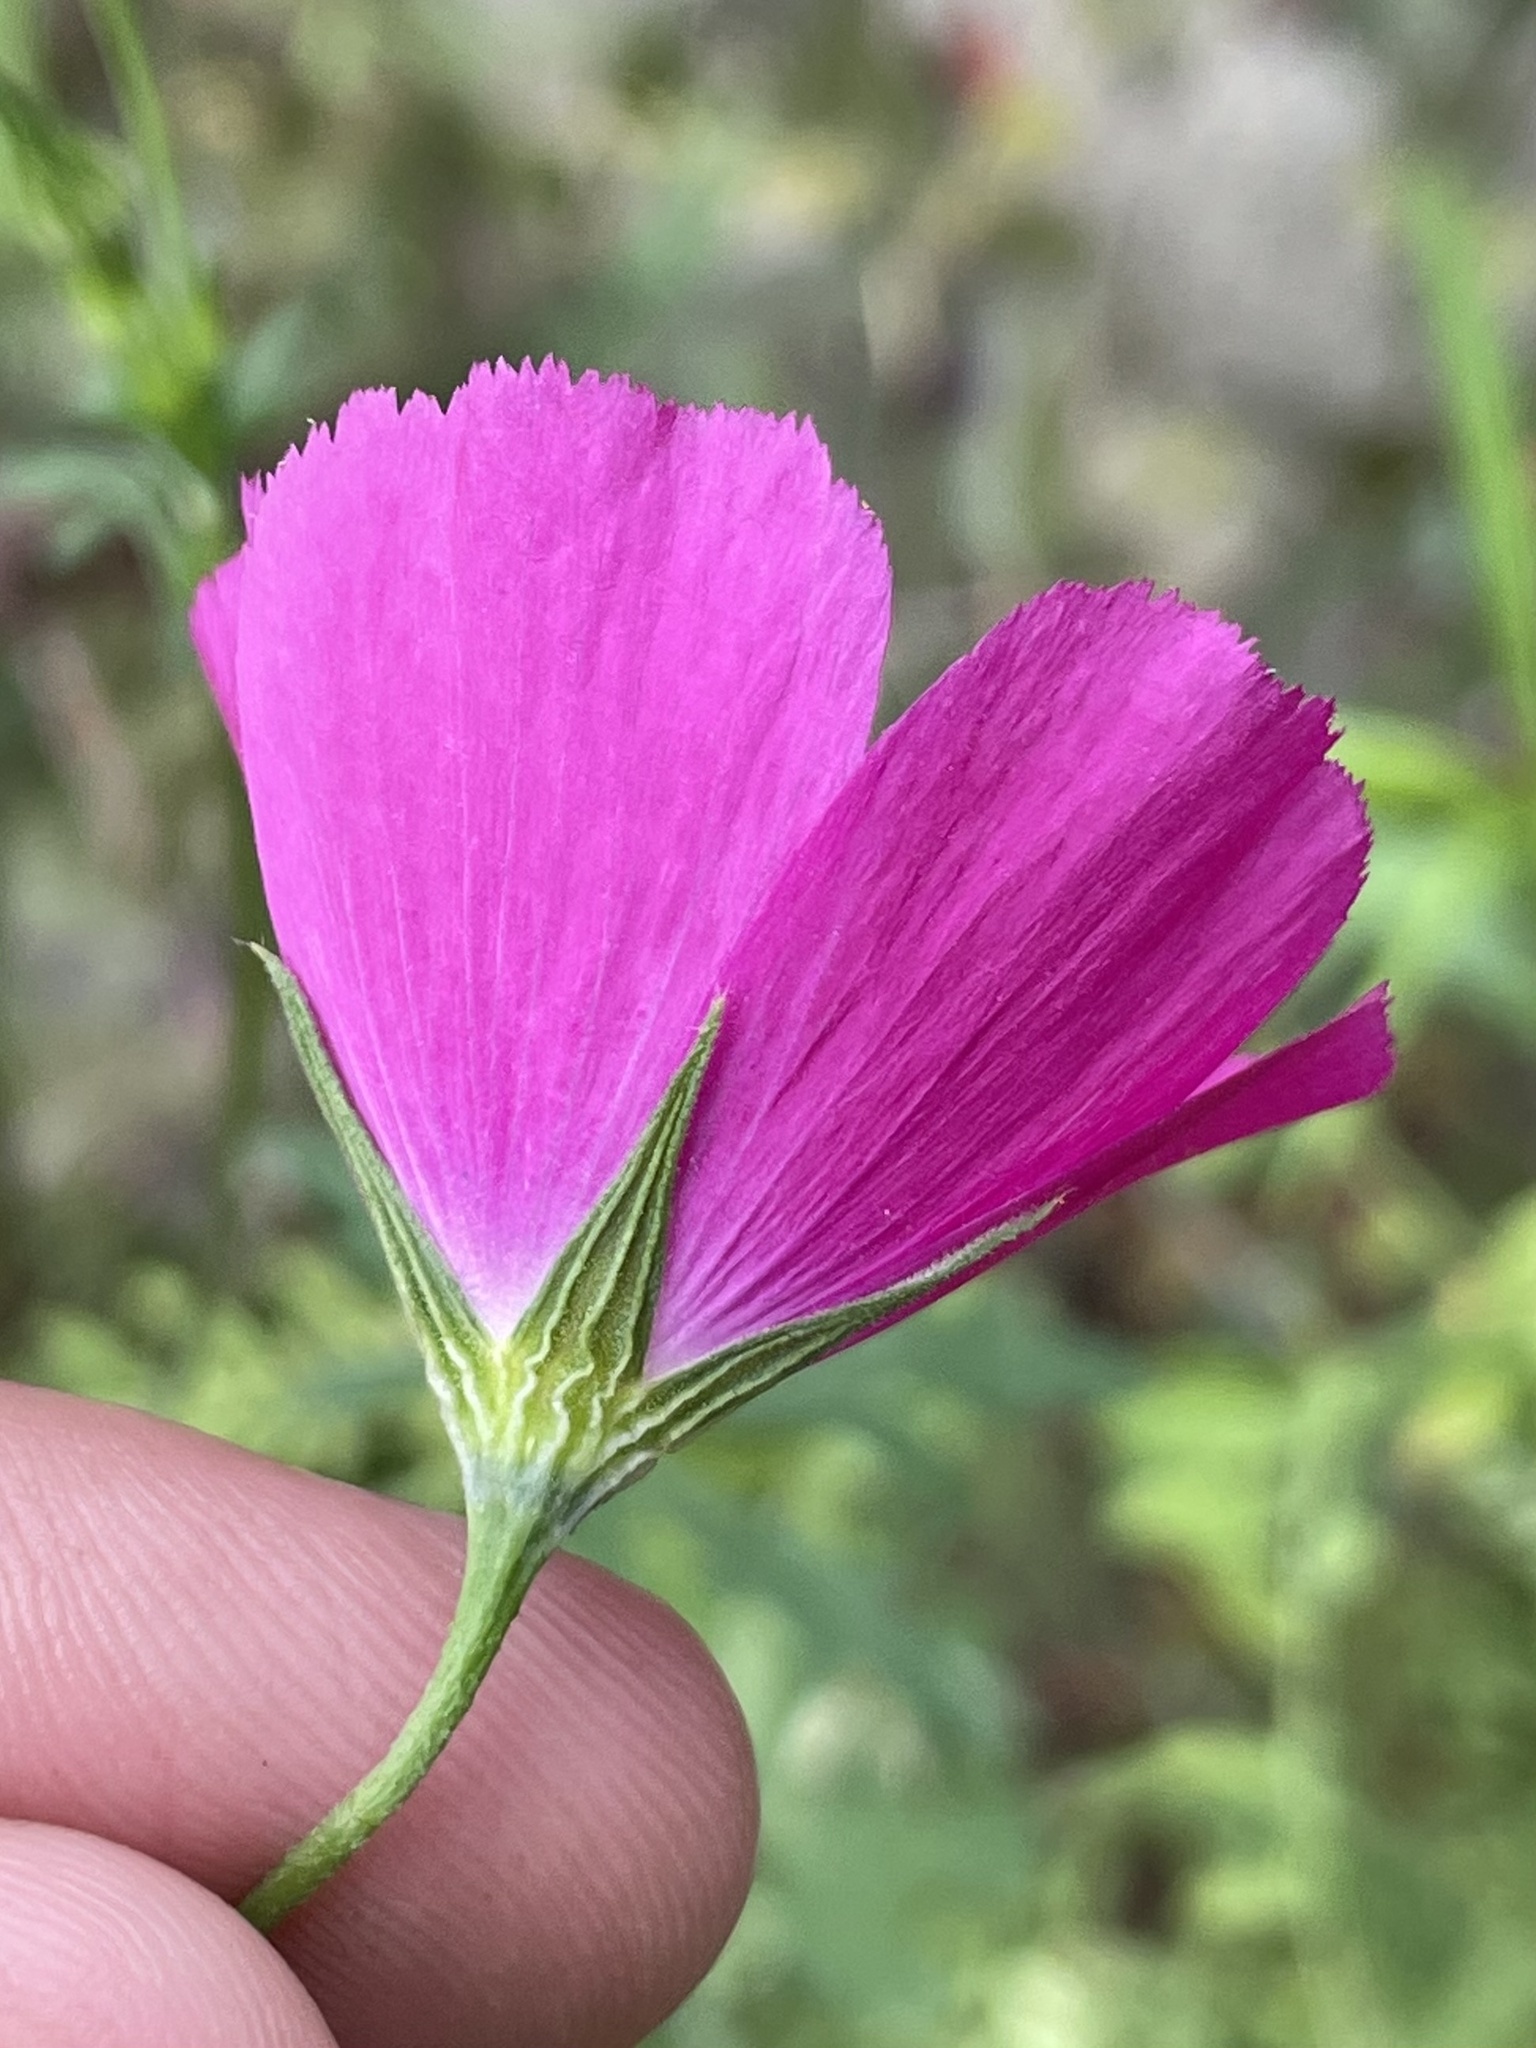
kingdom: Plantae
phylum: Tracheophyta
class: Magnoliopsida
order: Malvales
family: Malvaceae
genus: Callirhoe
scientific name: Callirhoe leiocarpa
